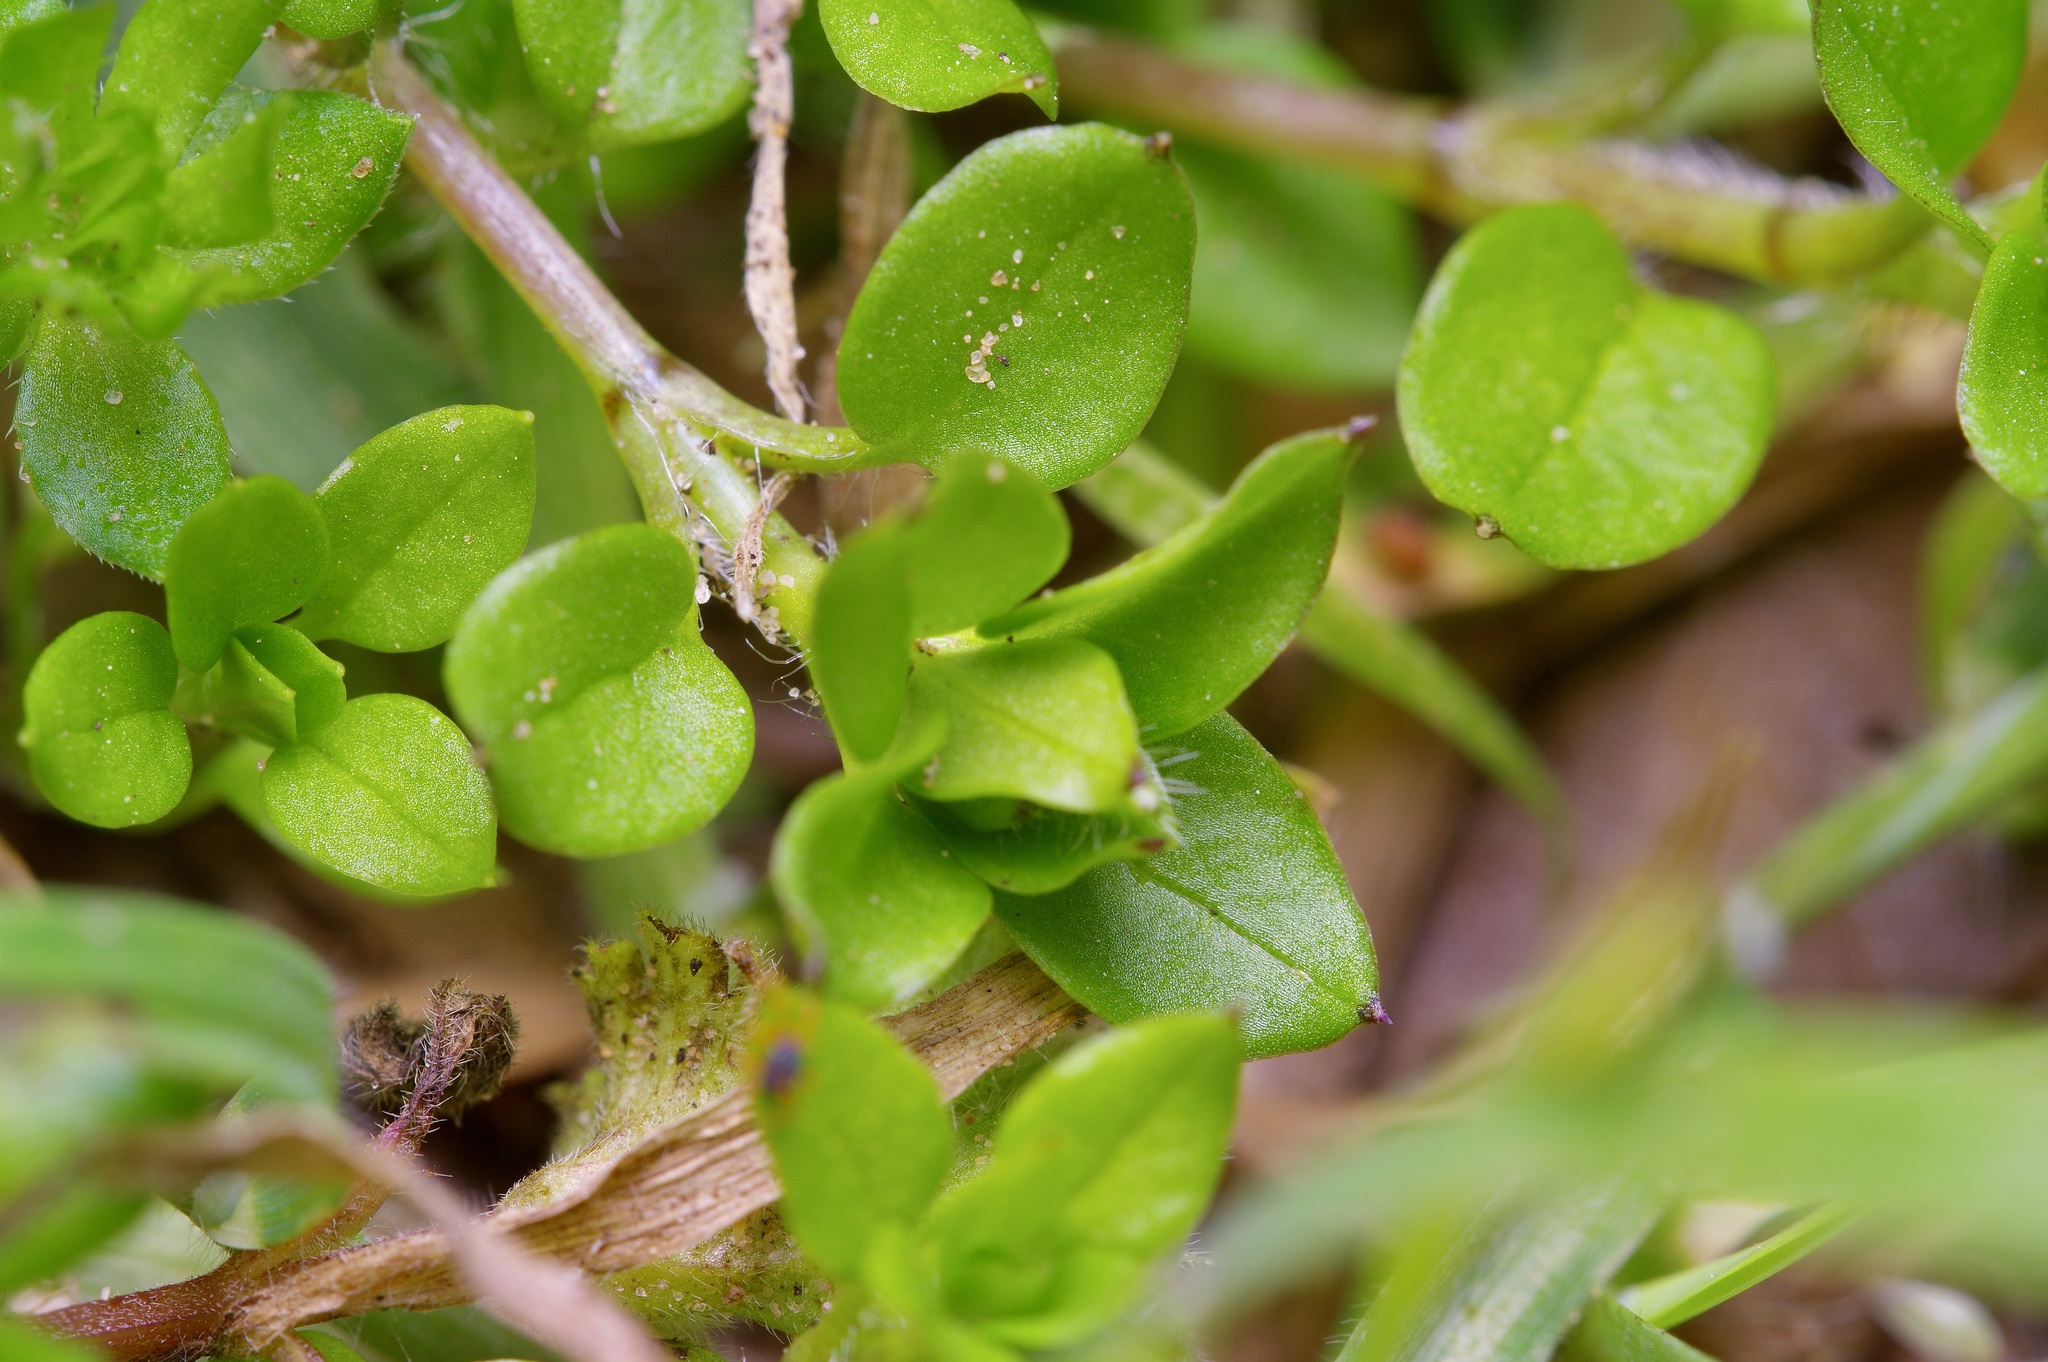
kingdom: Plantae
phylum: Tracheophyta
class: Magnoliopsida
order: Caryophyllales
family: Caryophyllaceae
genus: Stellaria
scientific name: Stellaria media
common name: Common chickweed
